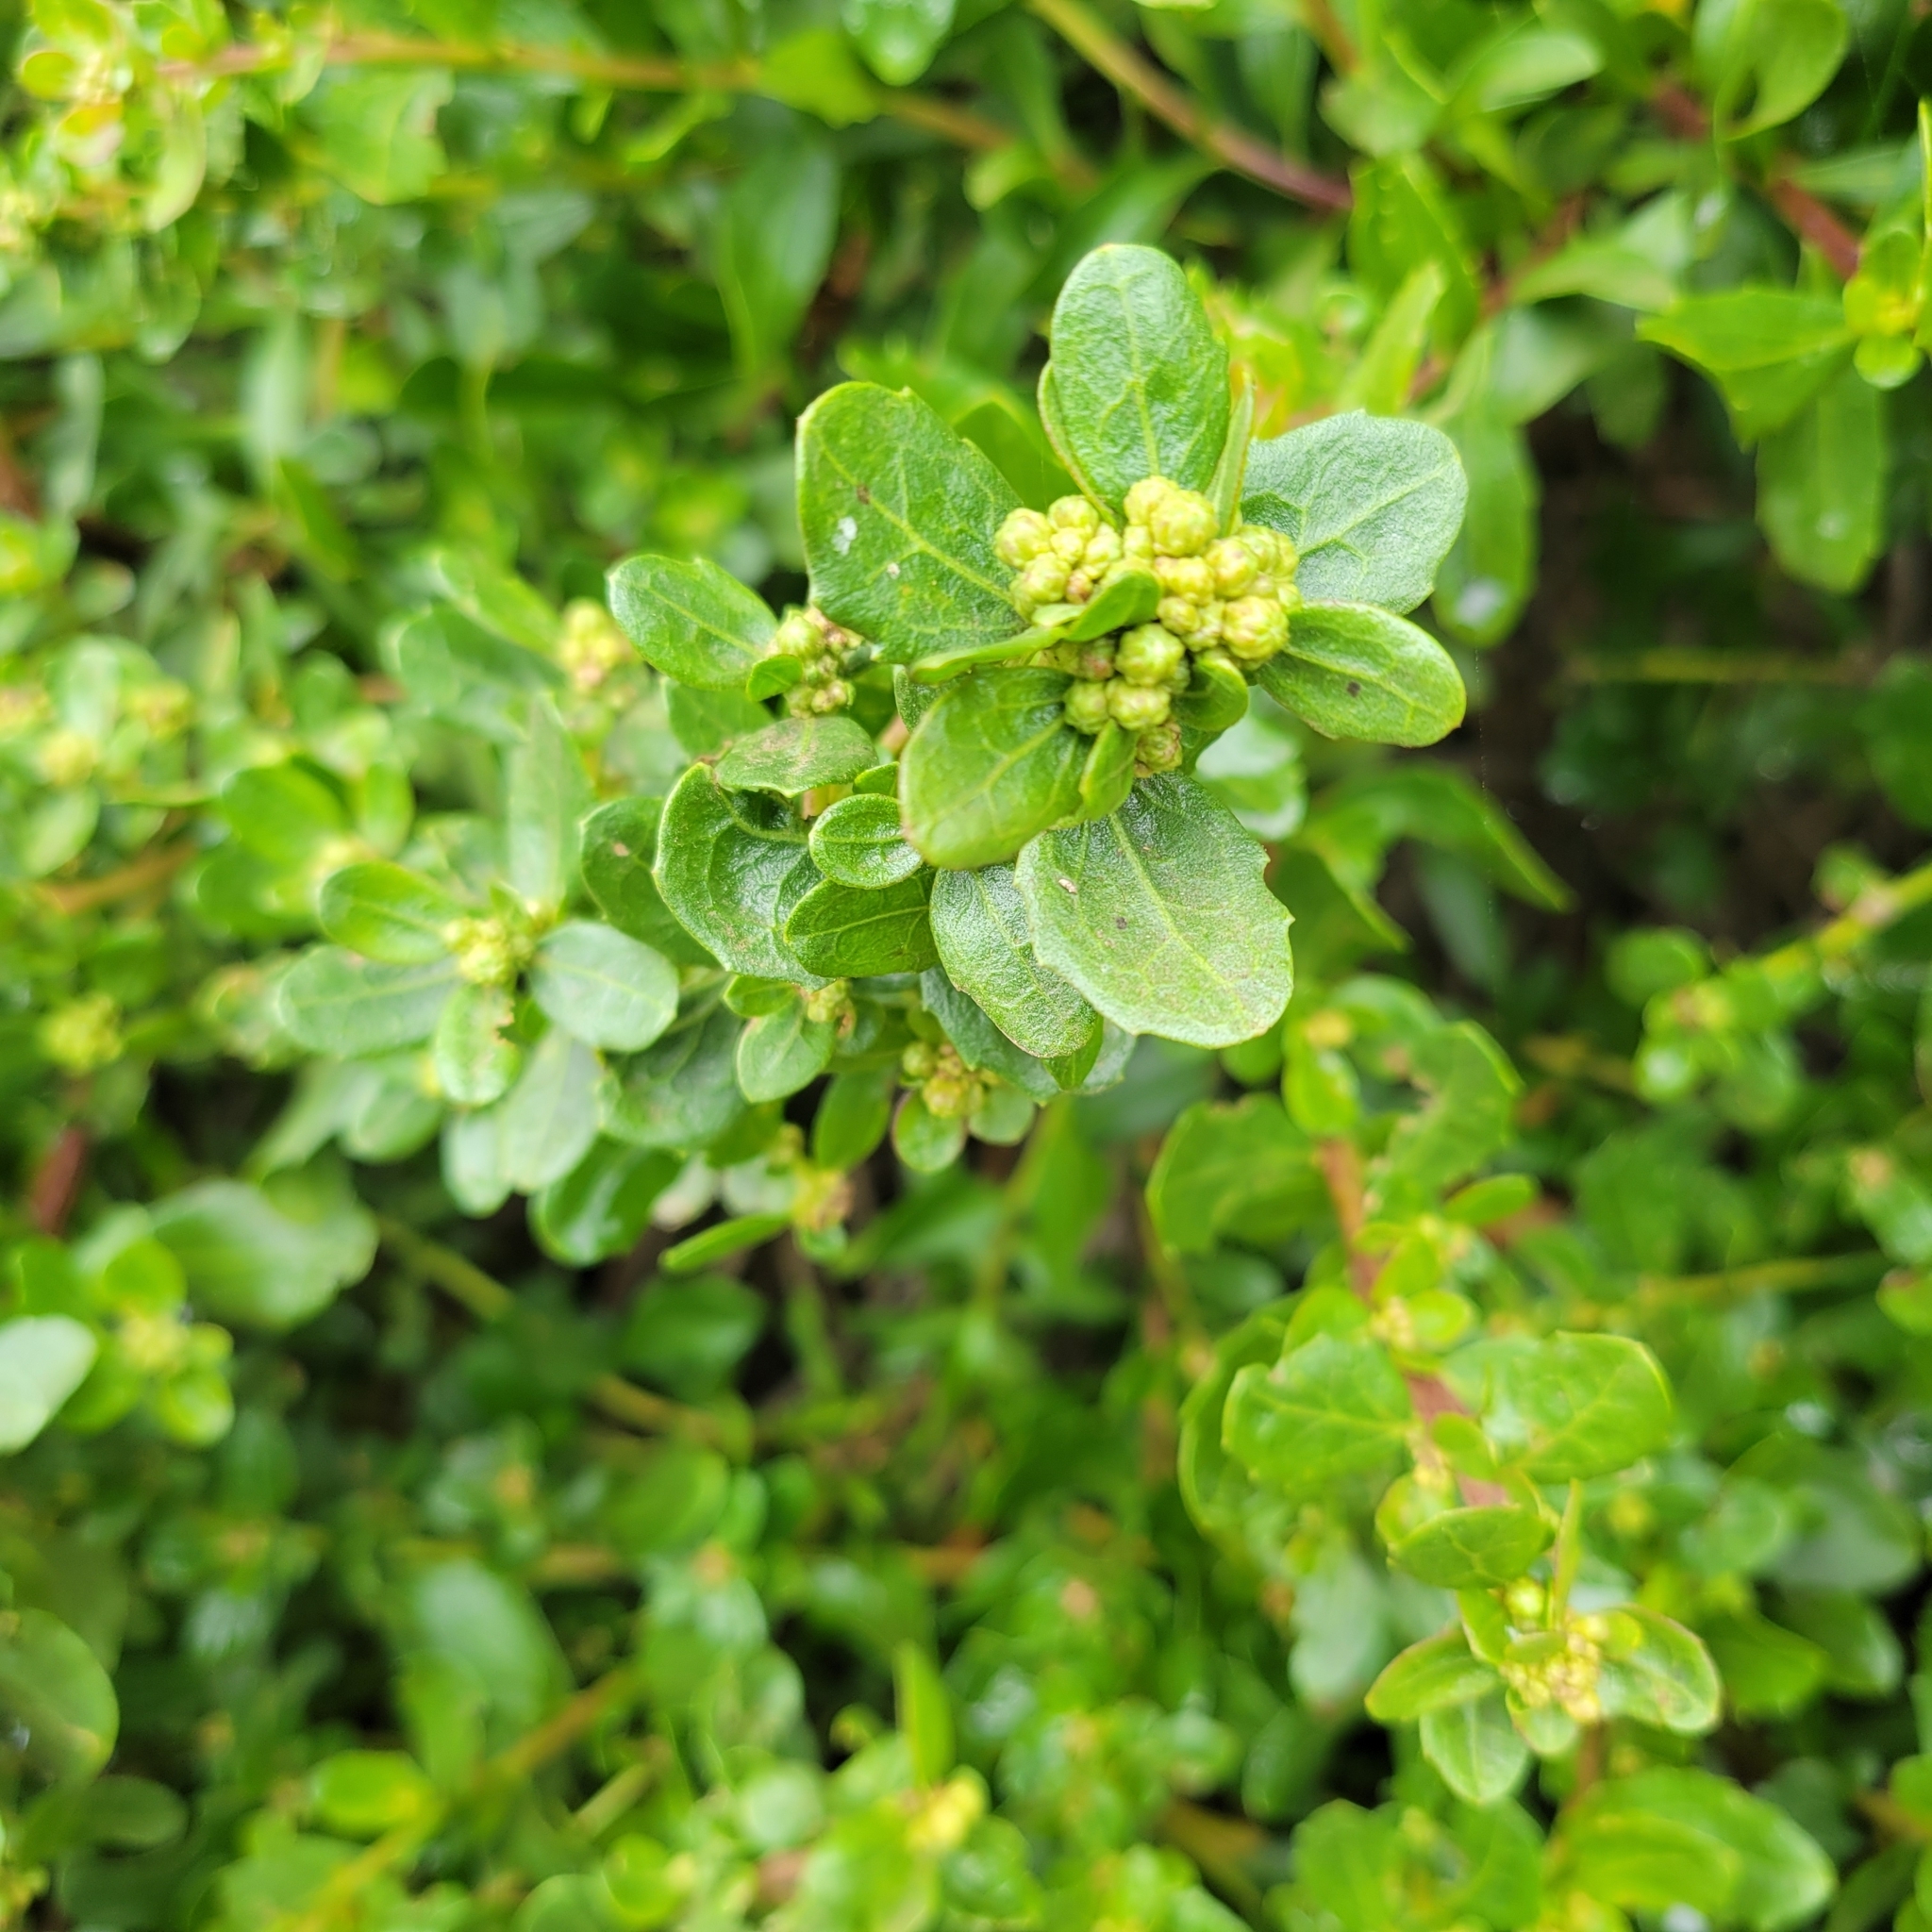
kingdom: Plantae
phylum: Tracheophyta
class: Magnoliopsida
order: Asterales
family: Asteraceae
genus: Baccharis
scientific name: Baccharis pilularis
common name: Coyotebrush
